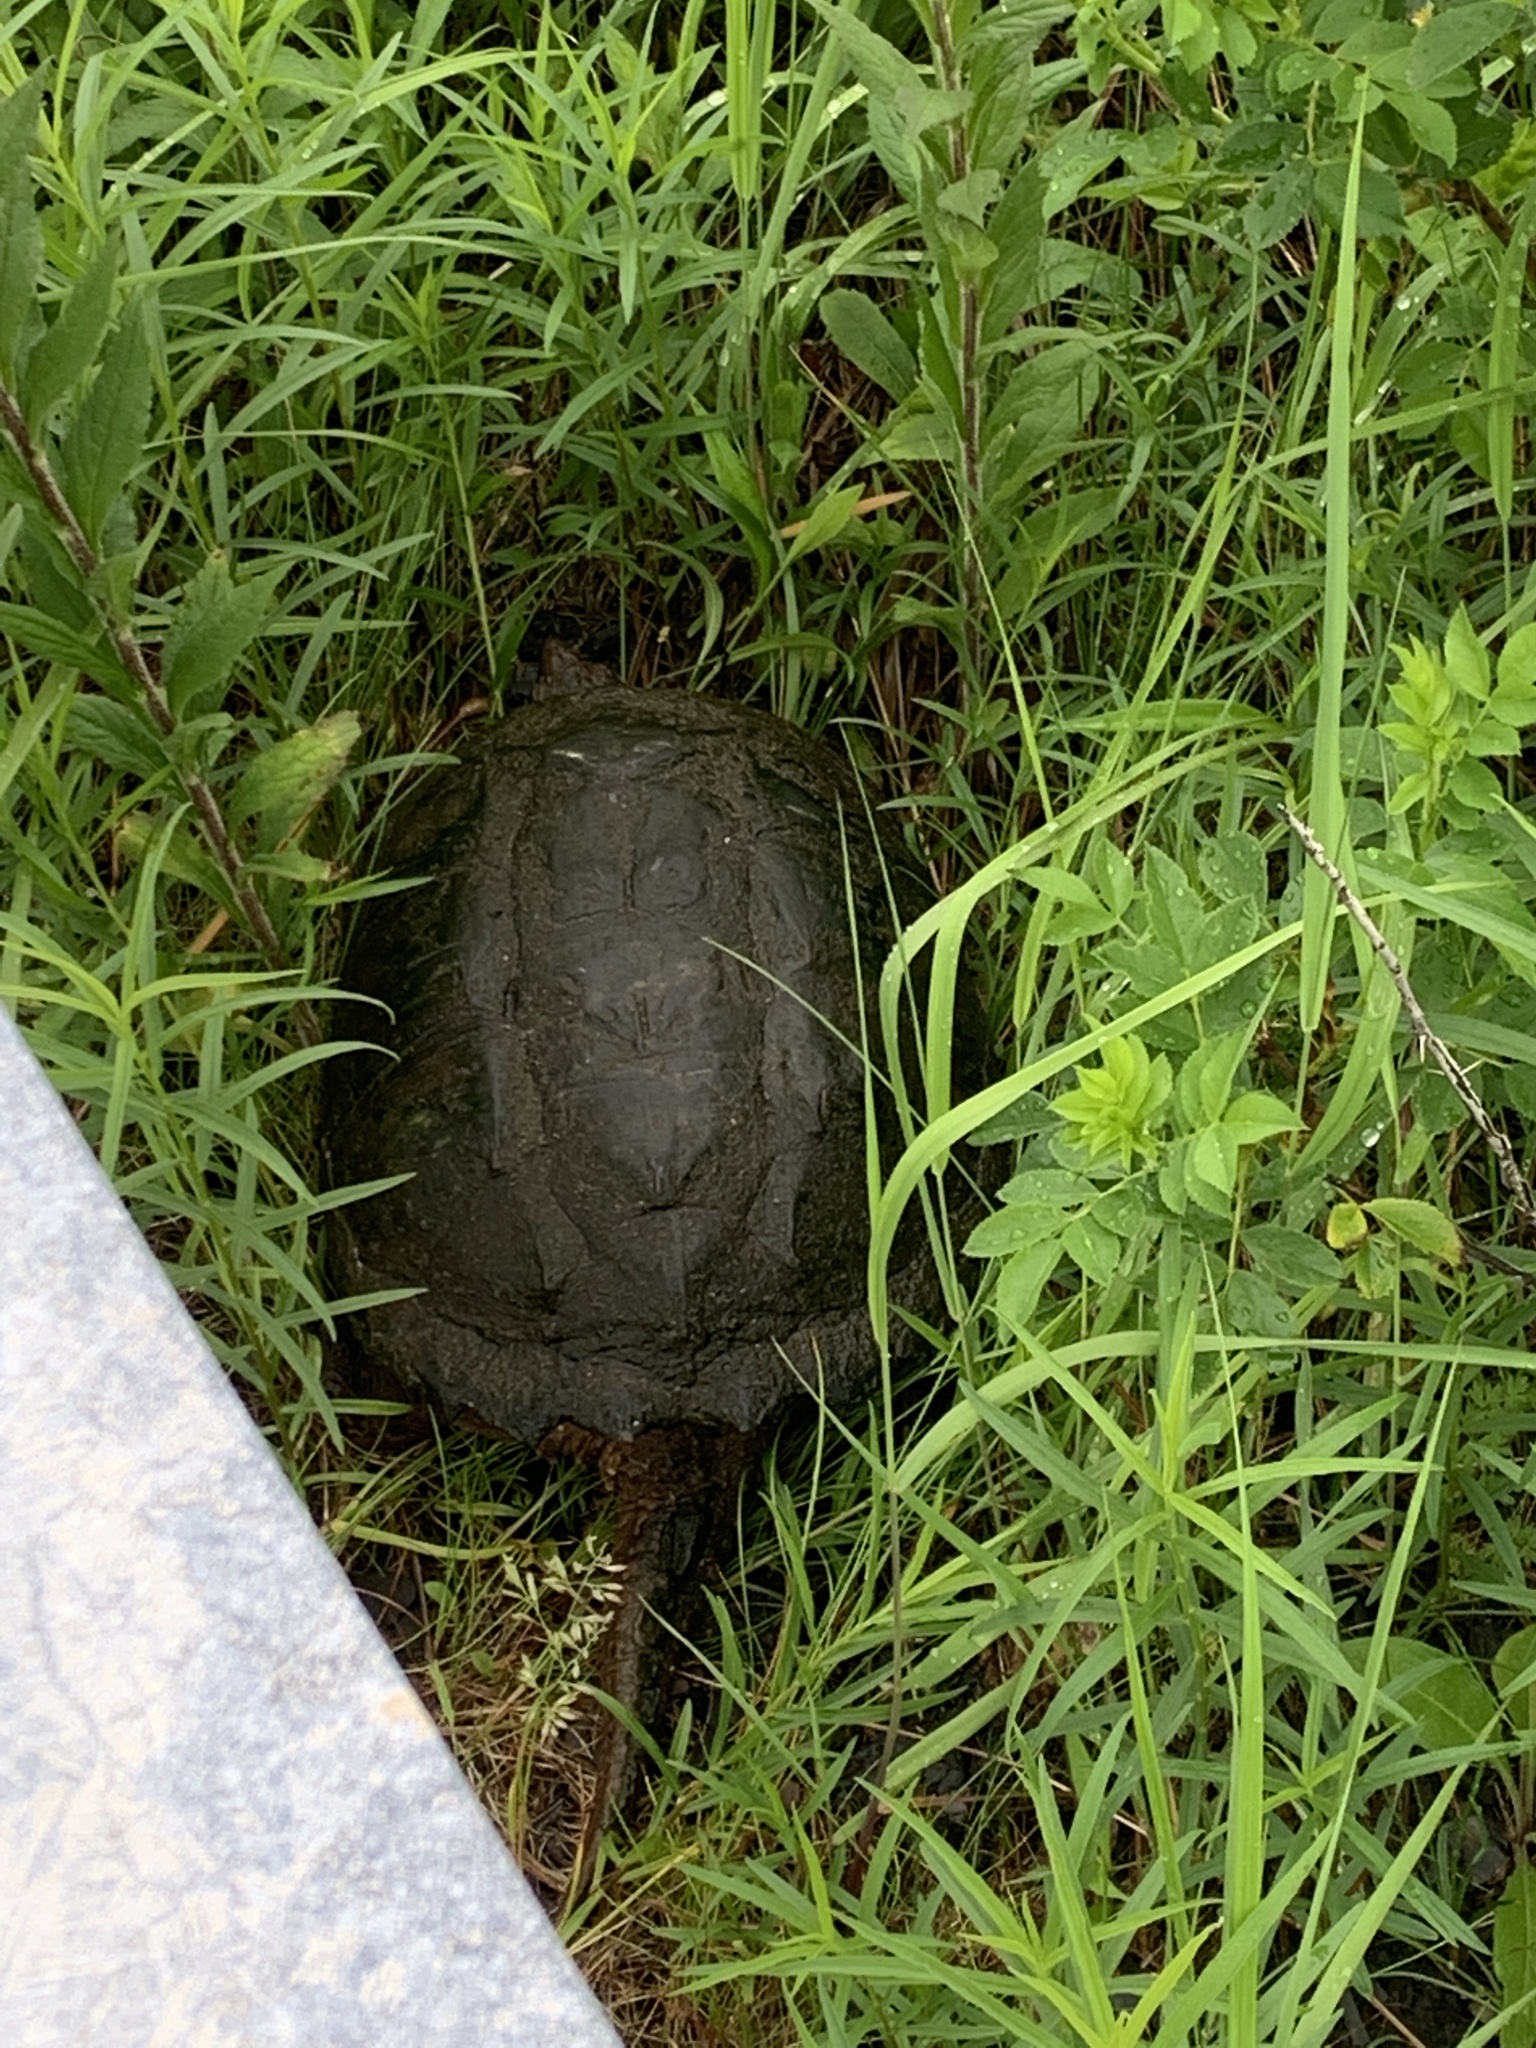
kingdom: Animalia
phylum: Chordata
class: Testudines
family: Chelydridae
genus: Chelydra
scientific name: Chelydra serpentina
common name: Common snapping turtle
